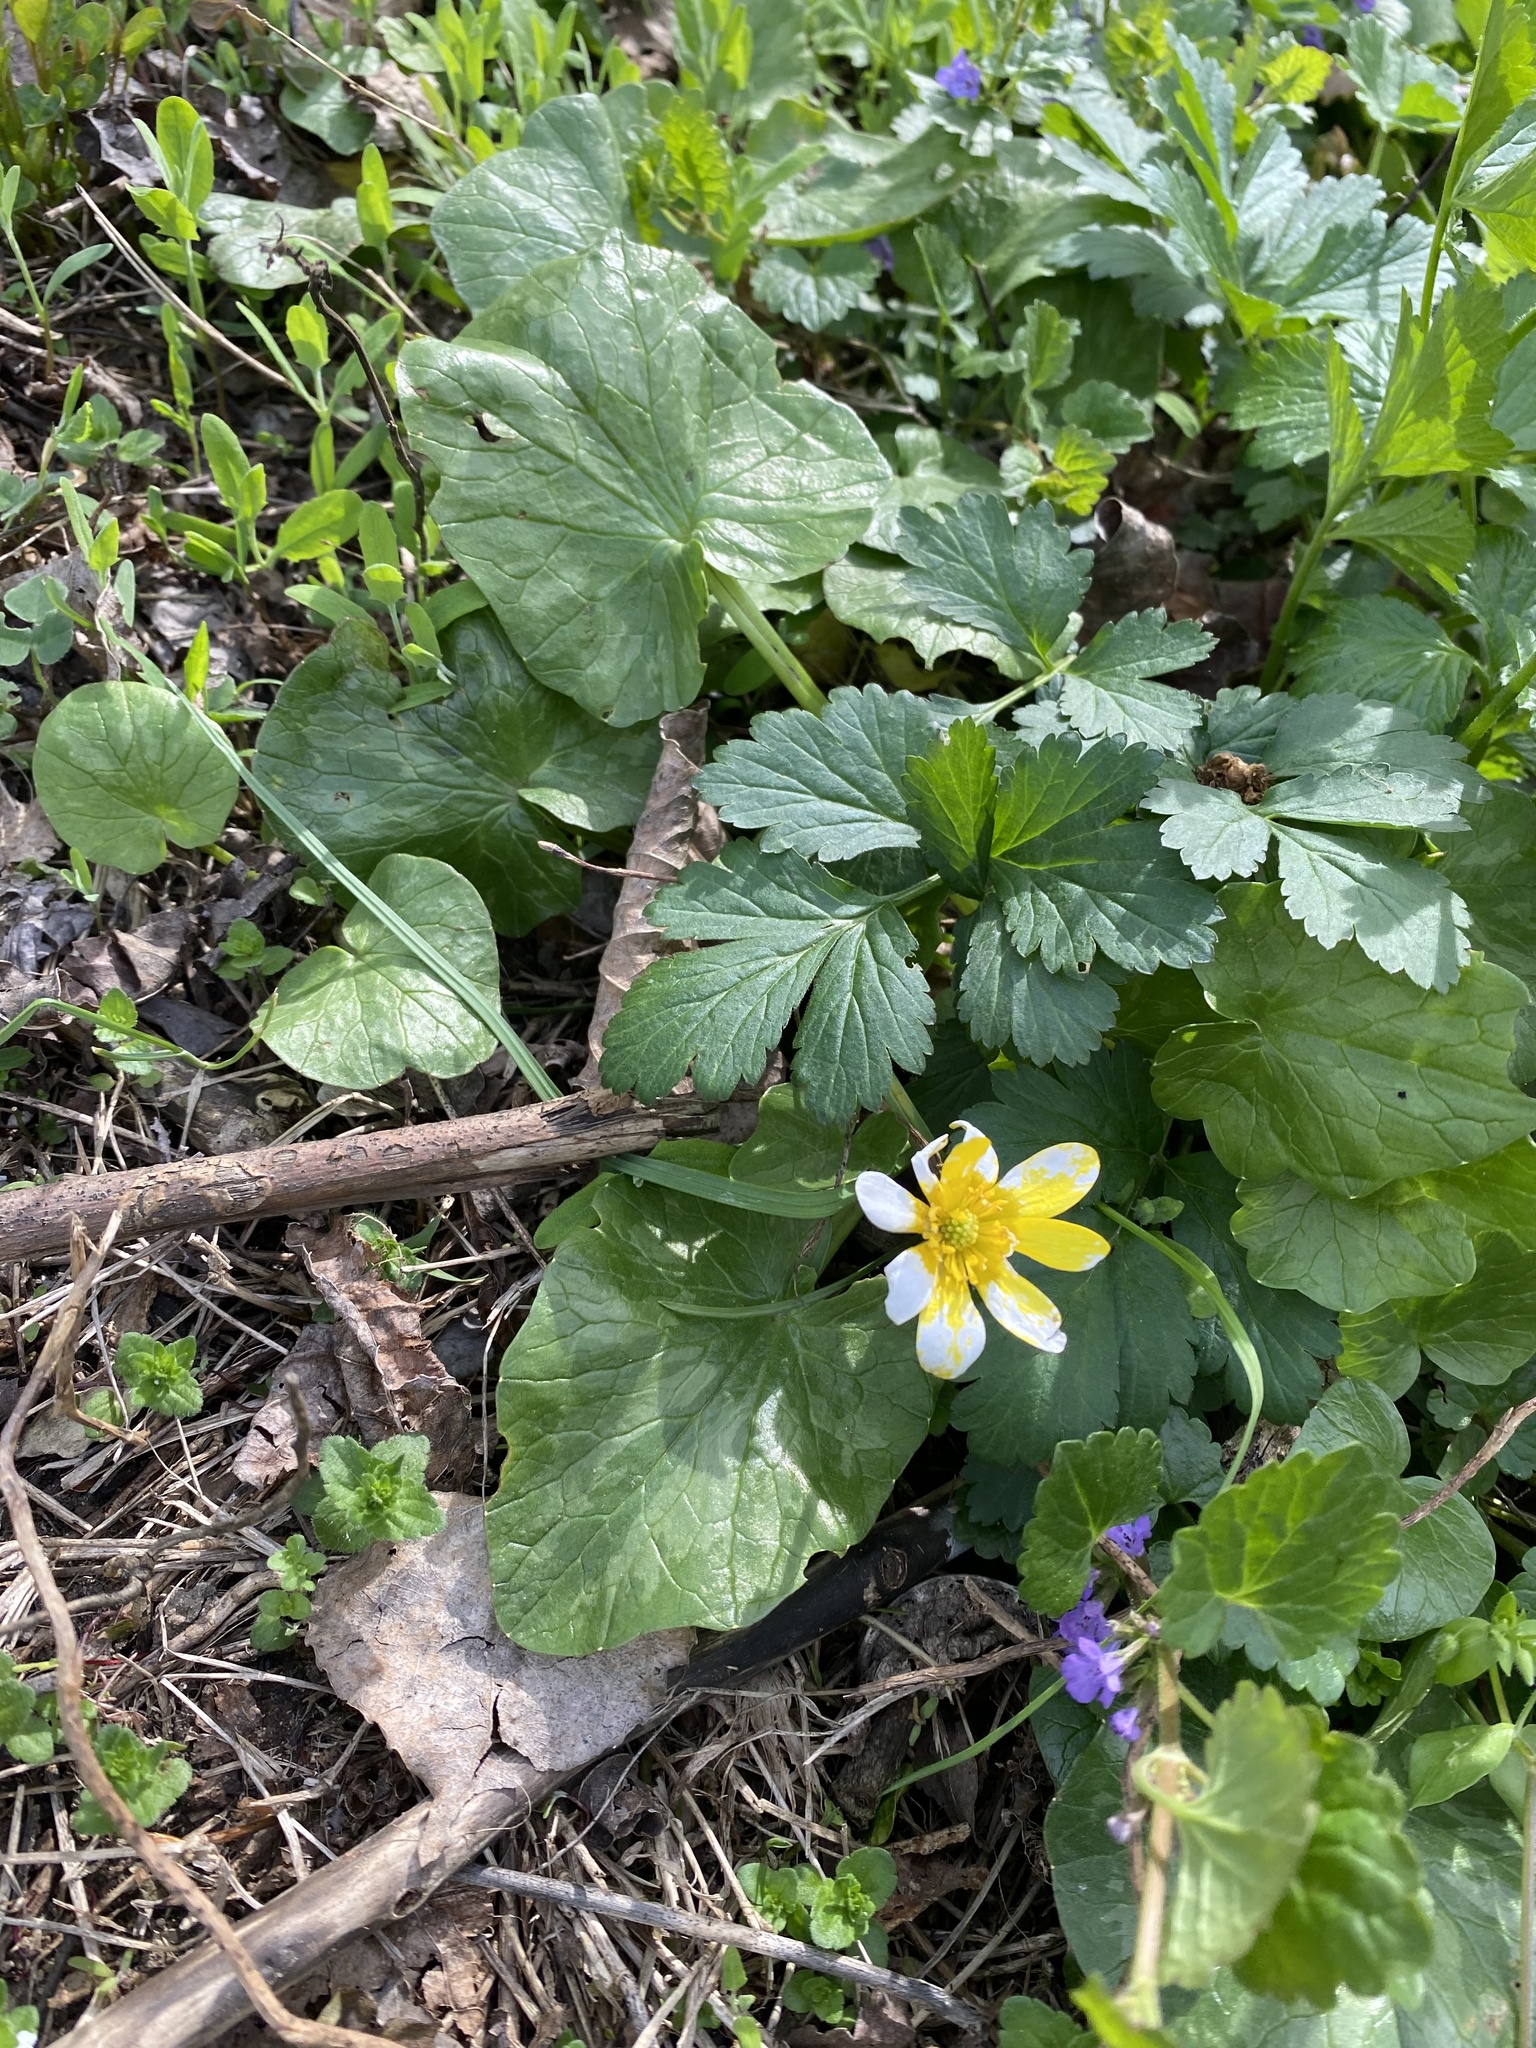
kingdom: Plantae
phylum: Tracheophyta
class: Magnoliopsida
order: Ranunculales
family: Ranunculaceae
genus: Ficaria
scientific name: Ficaria verna
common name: Lesser celandine
